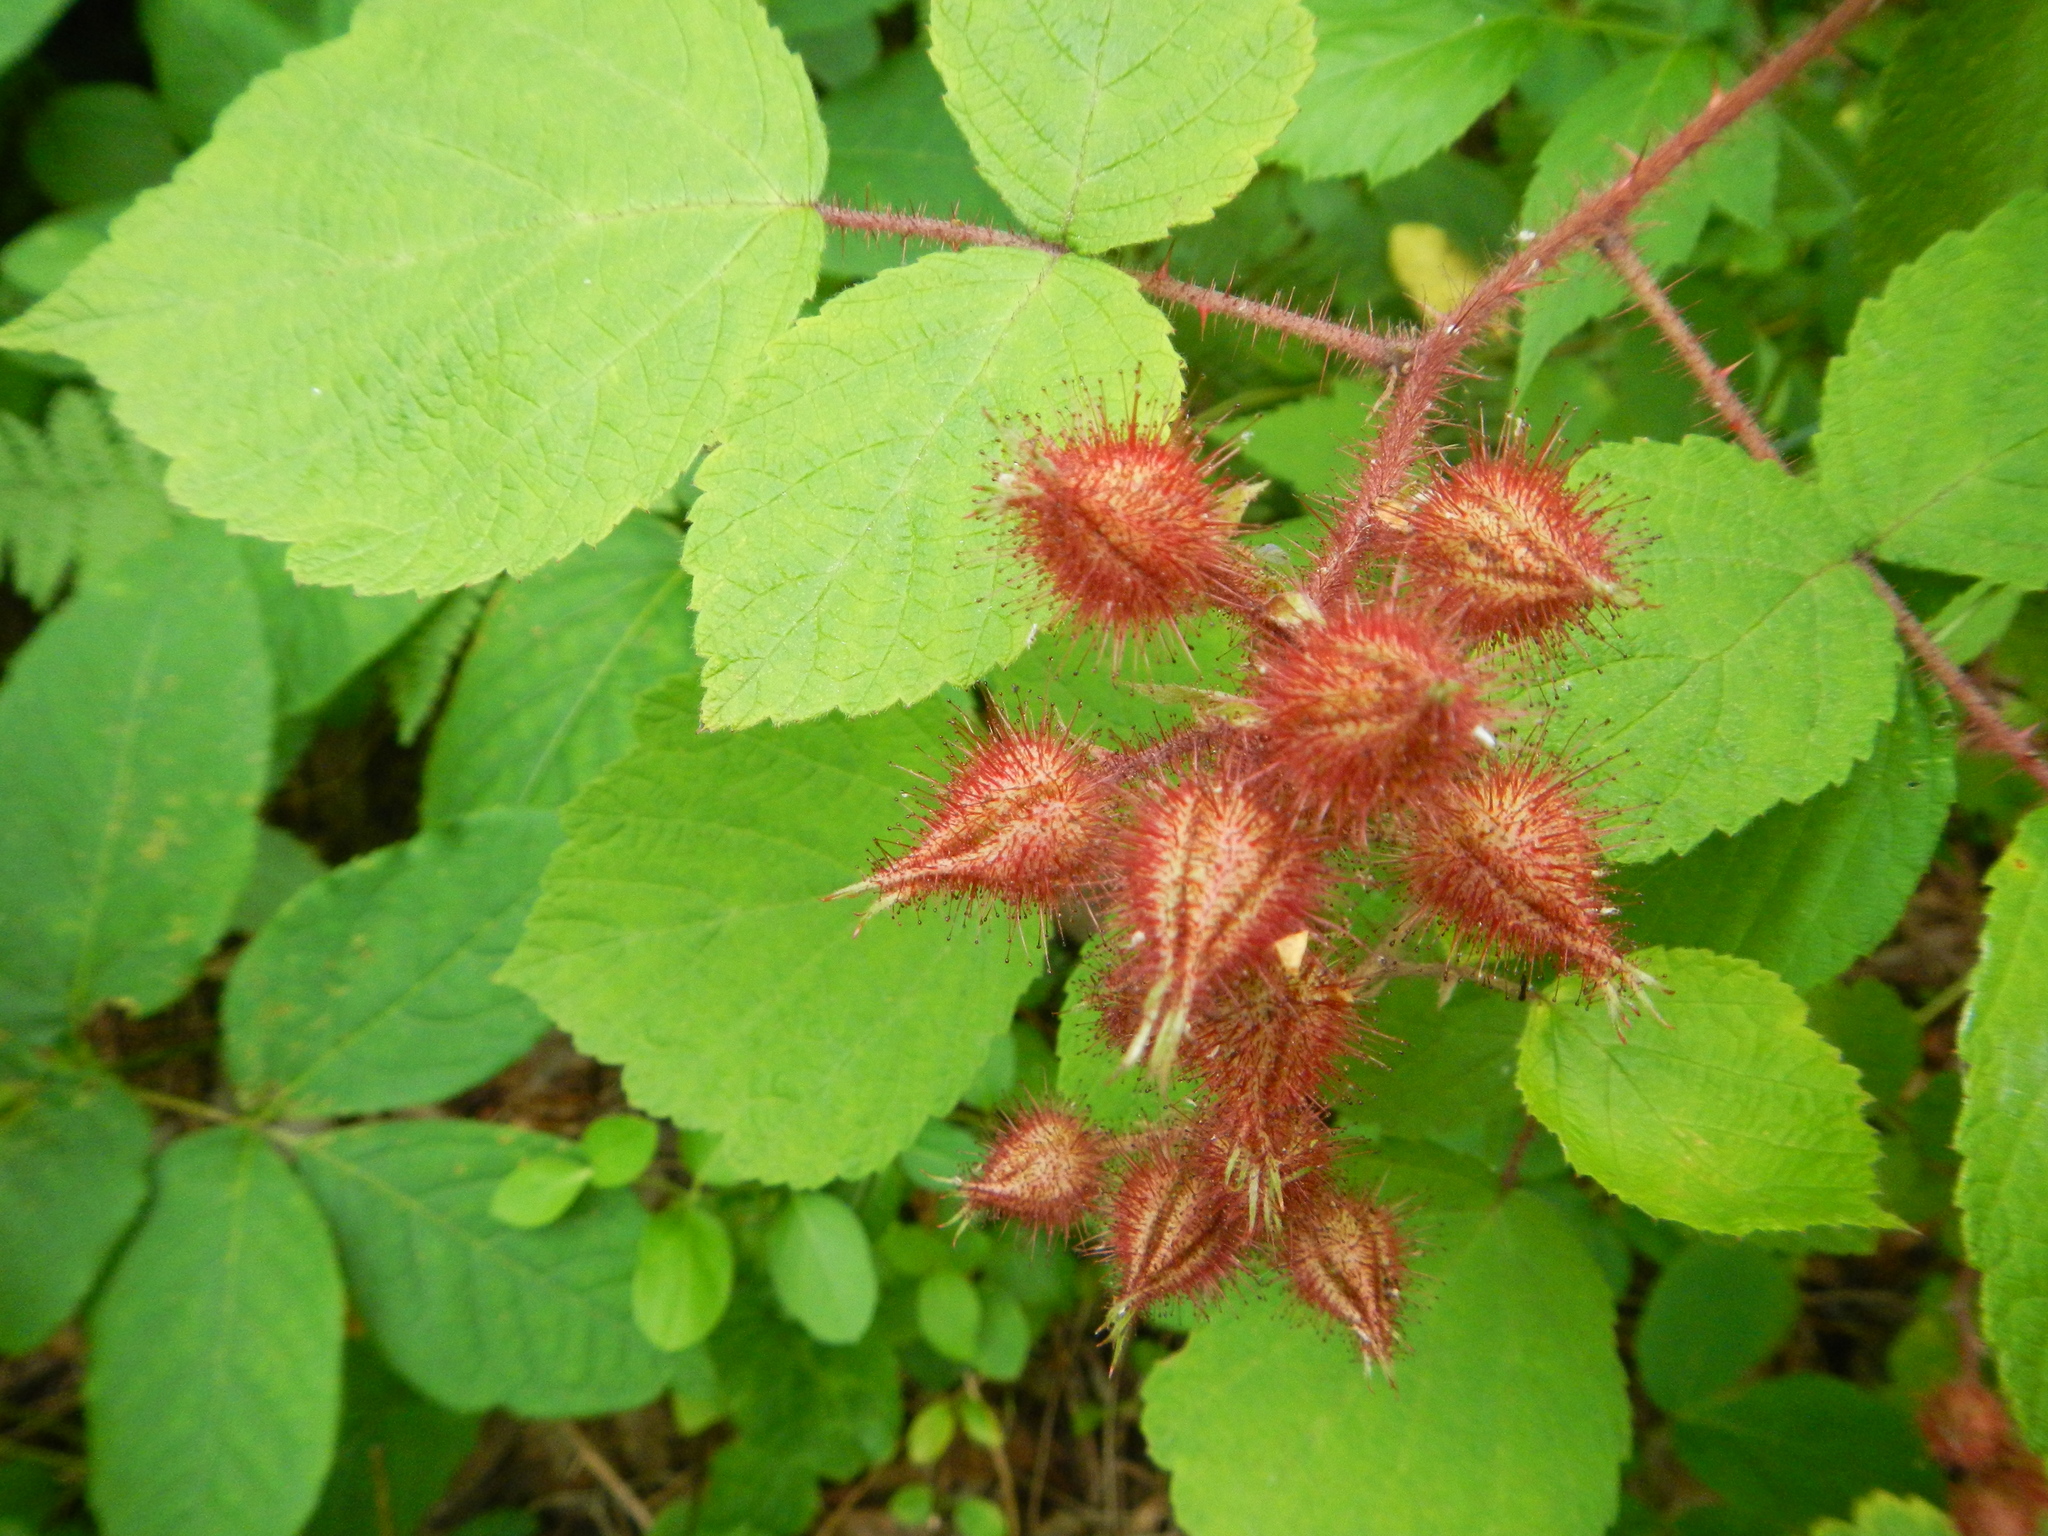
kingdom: Plantae
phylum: Tracheophyta
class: Magnoliopsida
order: Rosales
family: Rosaceae
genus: Rubus
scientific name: Rubus phoenicolasius
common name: Japanese wineberry
